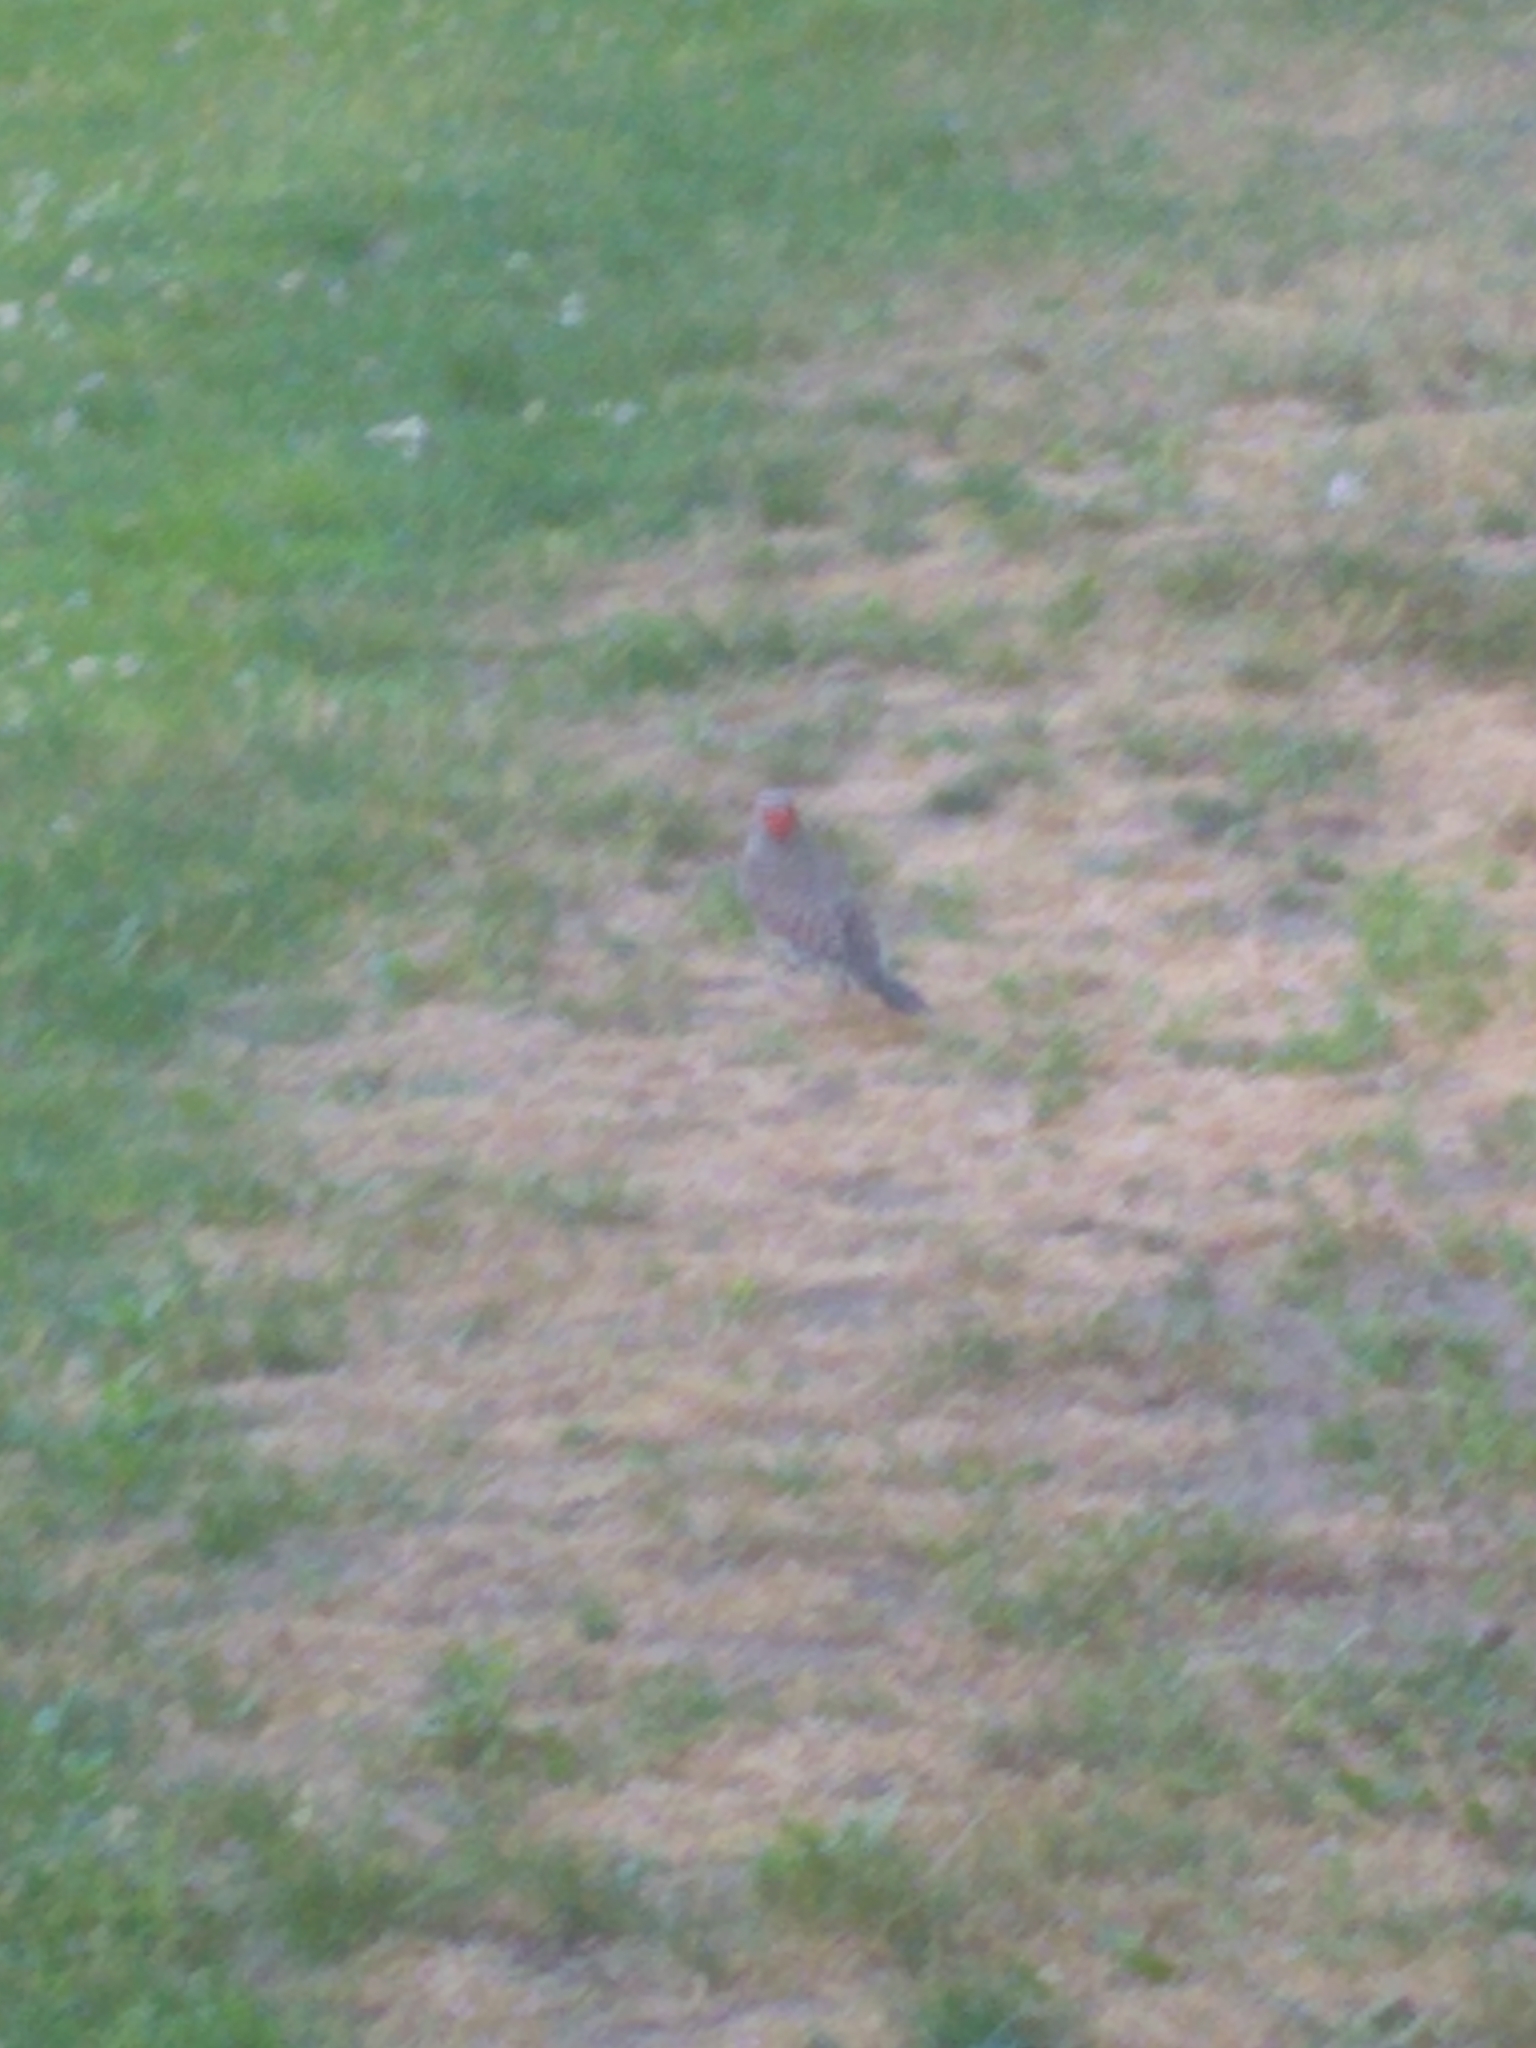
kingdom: Animalia
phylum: Chordata
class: Aves
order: Piciformes
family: Picidae
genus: Colaptes
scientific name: Colaptes auratus
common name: Northern flicker
